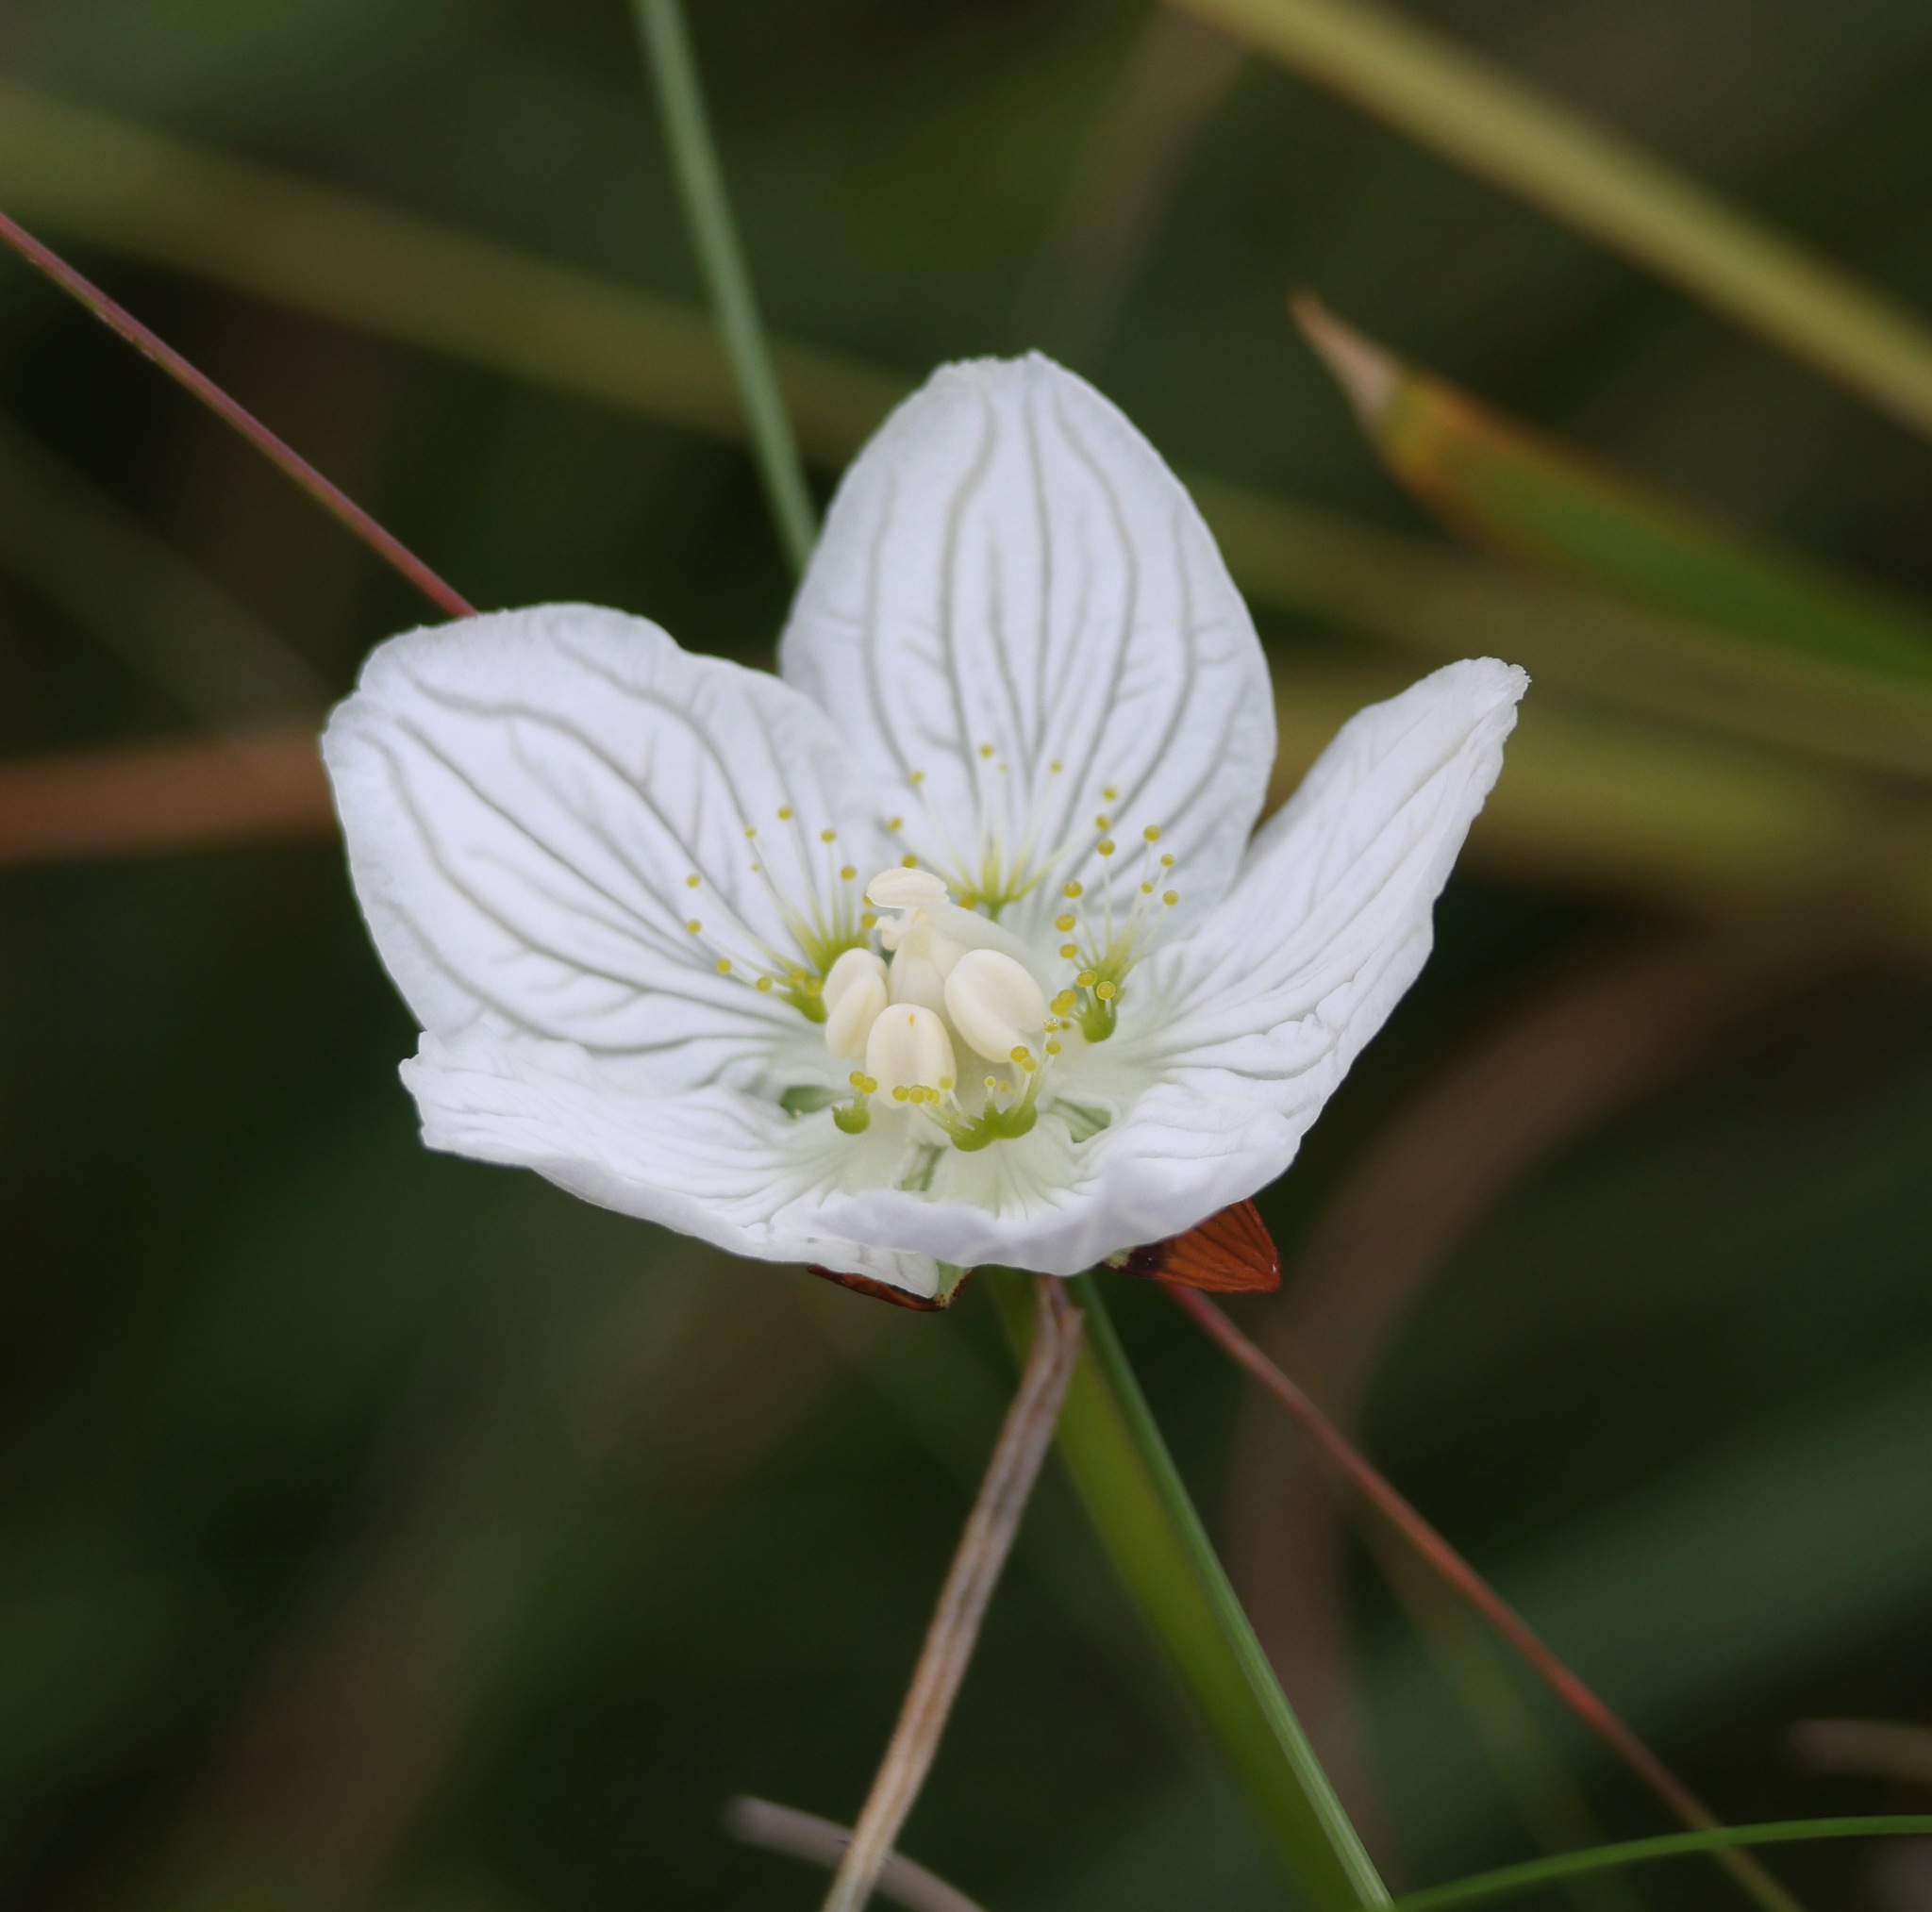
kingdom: Plantae
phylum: Tracheophyta
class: Magnoliopsida
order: Celastrales
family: Parnassiaceae
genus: Parnassia
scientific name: Parnassia palustris
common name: Grass-of-parnassus
